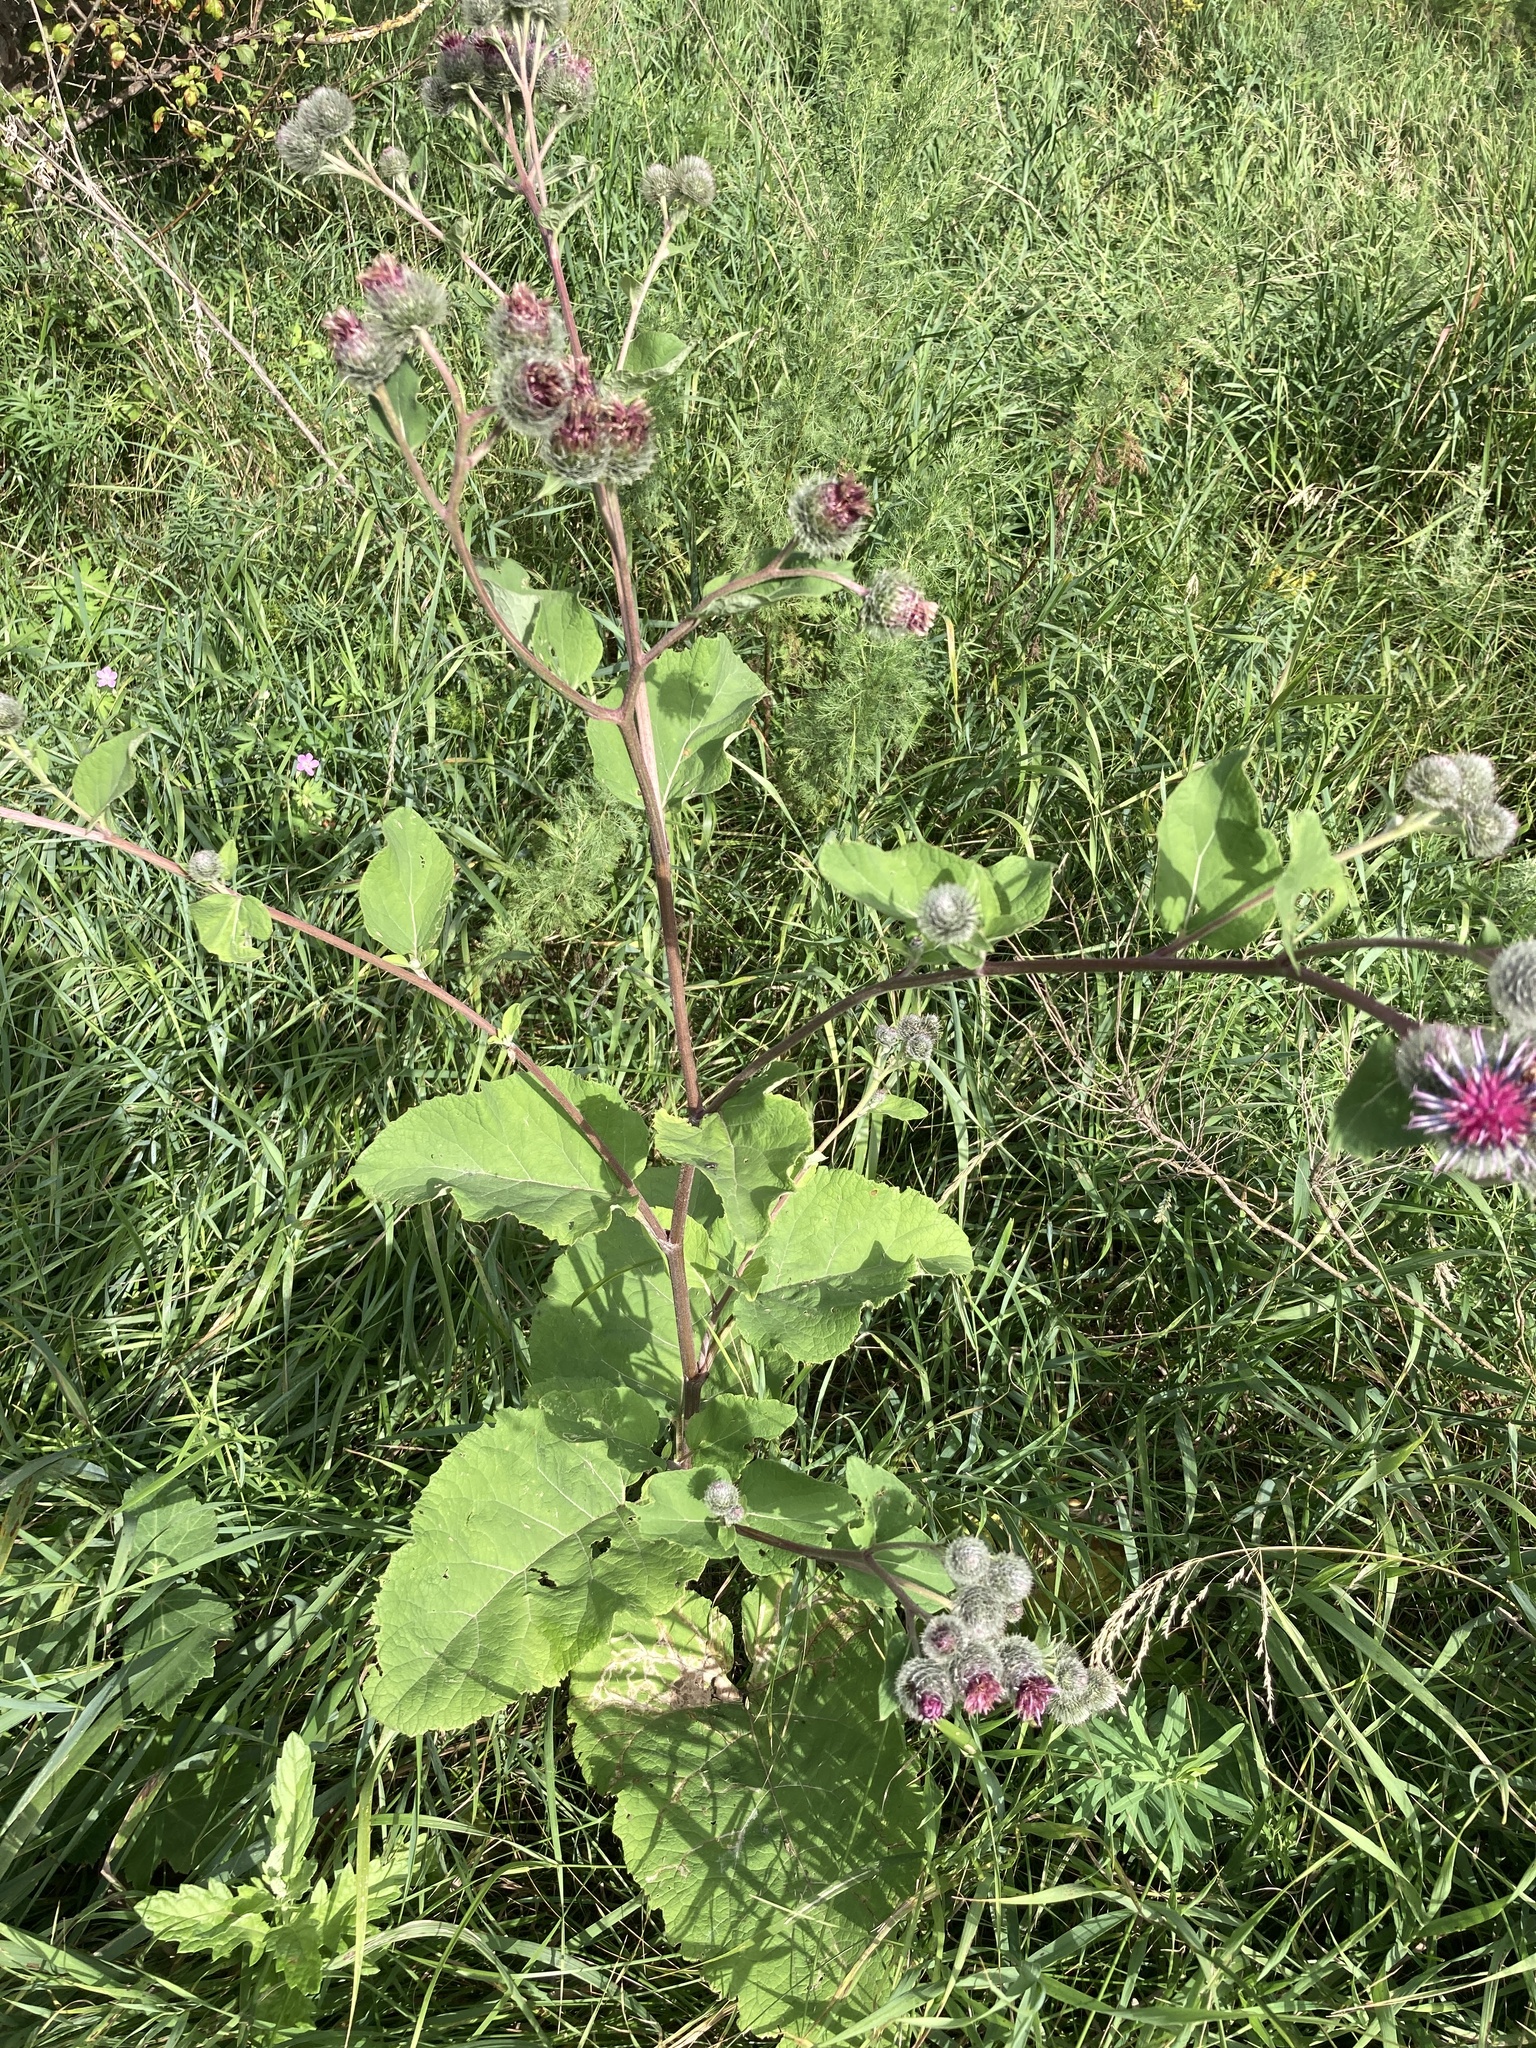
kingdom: Plantae
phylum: Tracheophyta
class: Magnoliopsida
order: Asterales
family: Asteraceae
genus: Arctium
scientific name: Arctium tomentosum
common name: Woolly burdock
